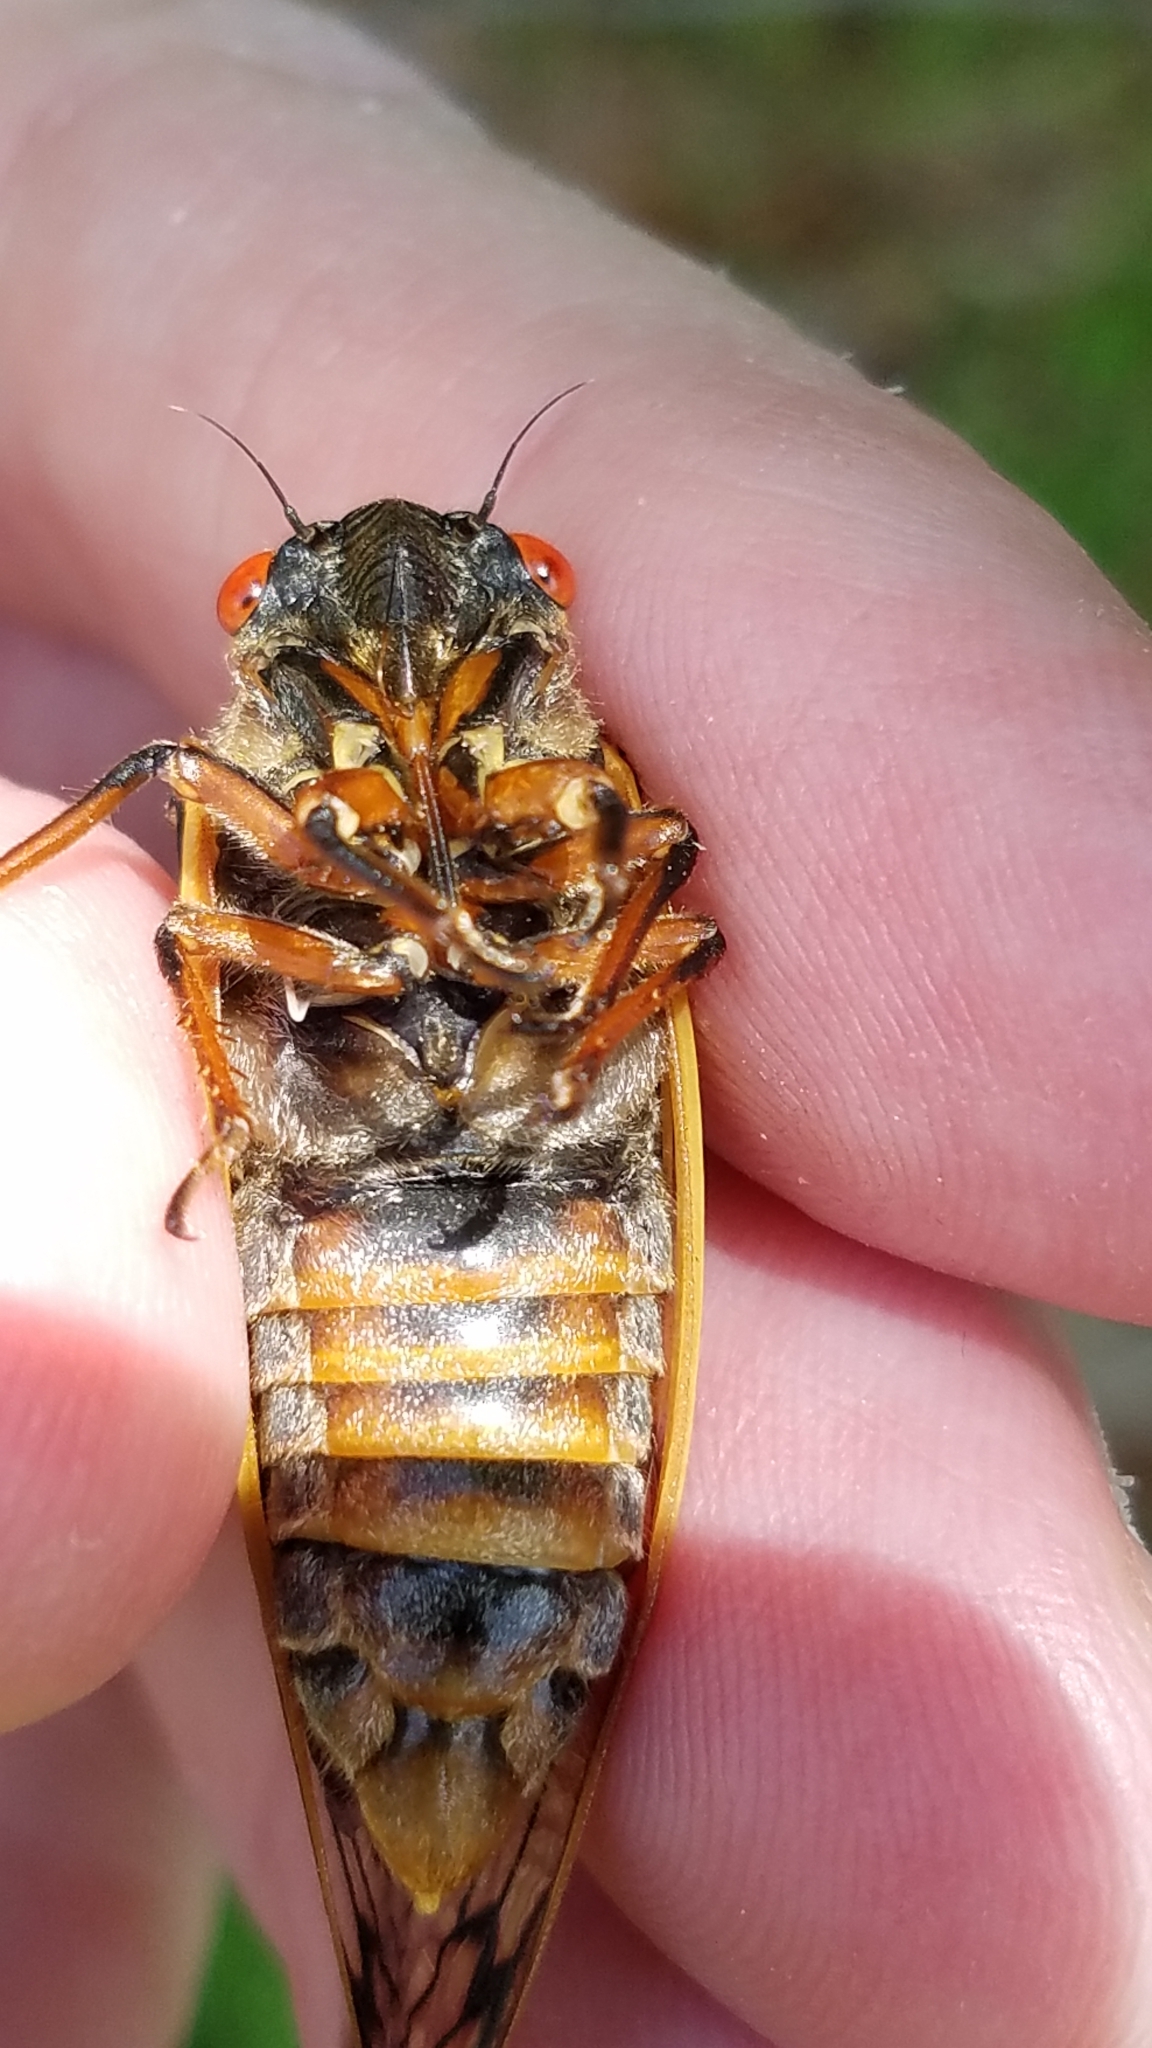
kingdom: Animalia
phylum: Arthropoda
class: Insecta
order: Hemiptera
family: Cicadidae
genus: Magicicada
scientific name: Magicicada septendecim
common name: Periodical cicada
